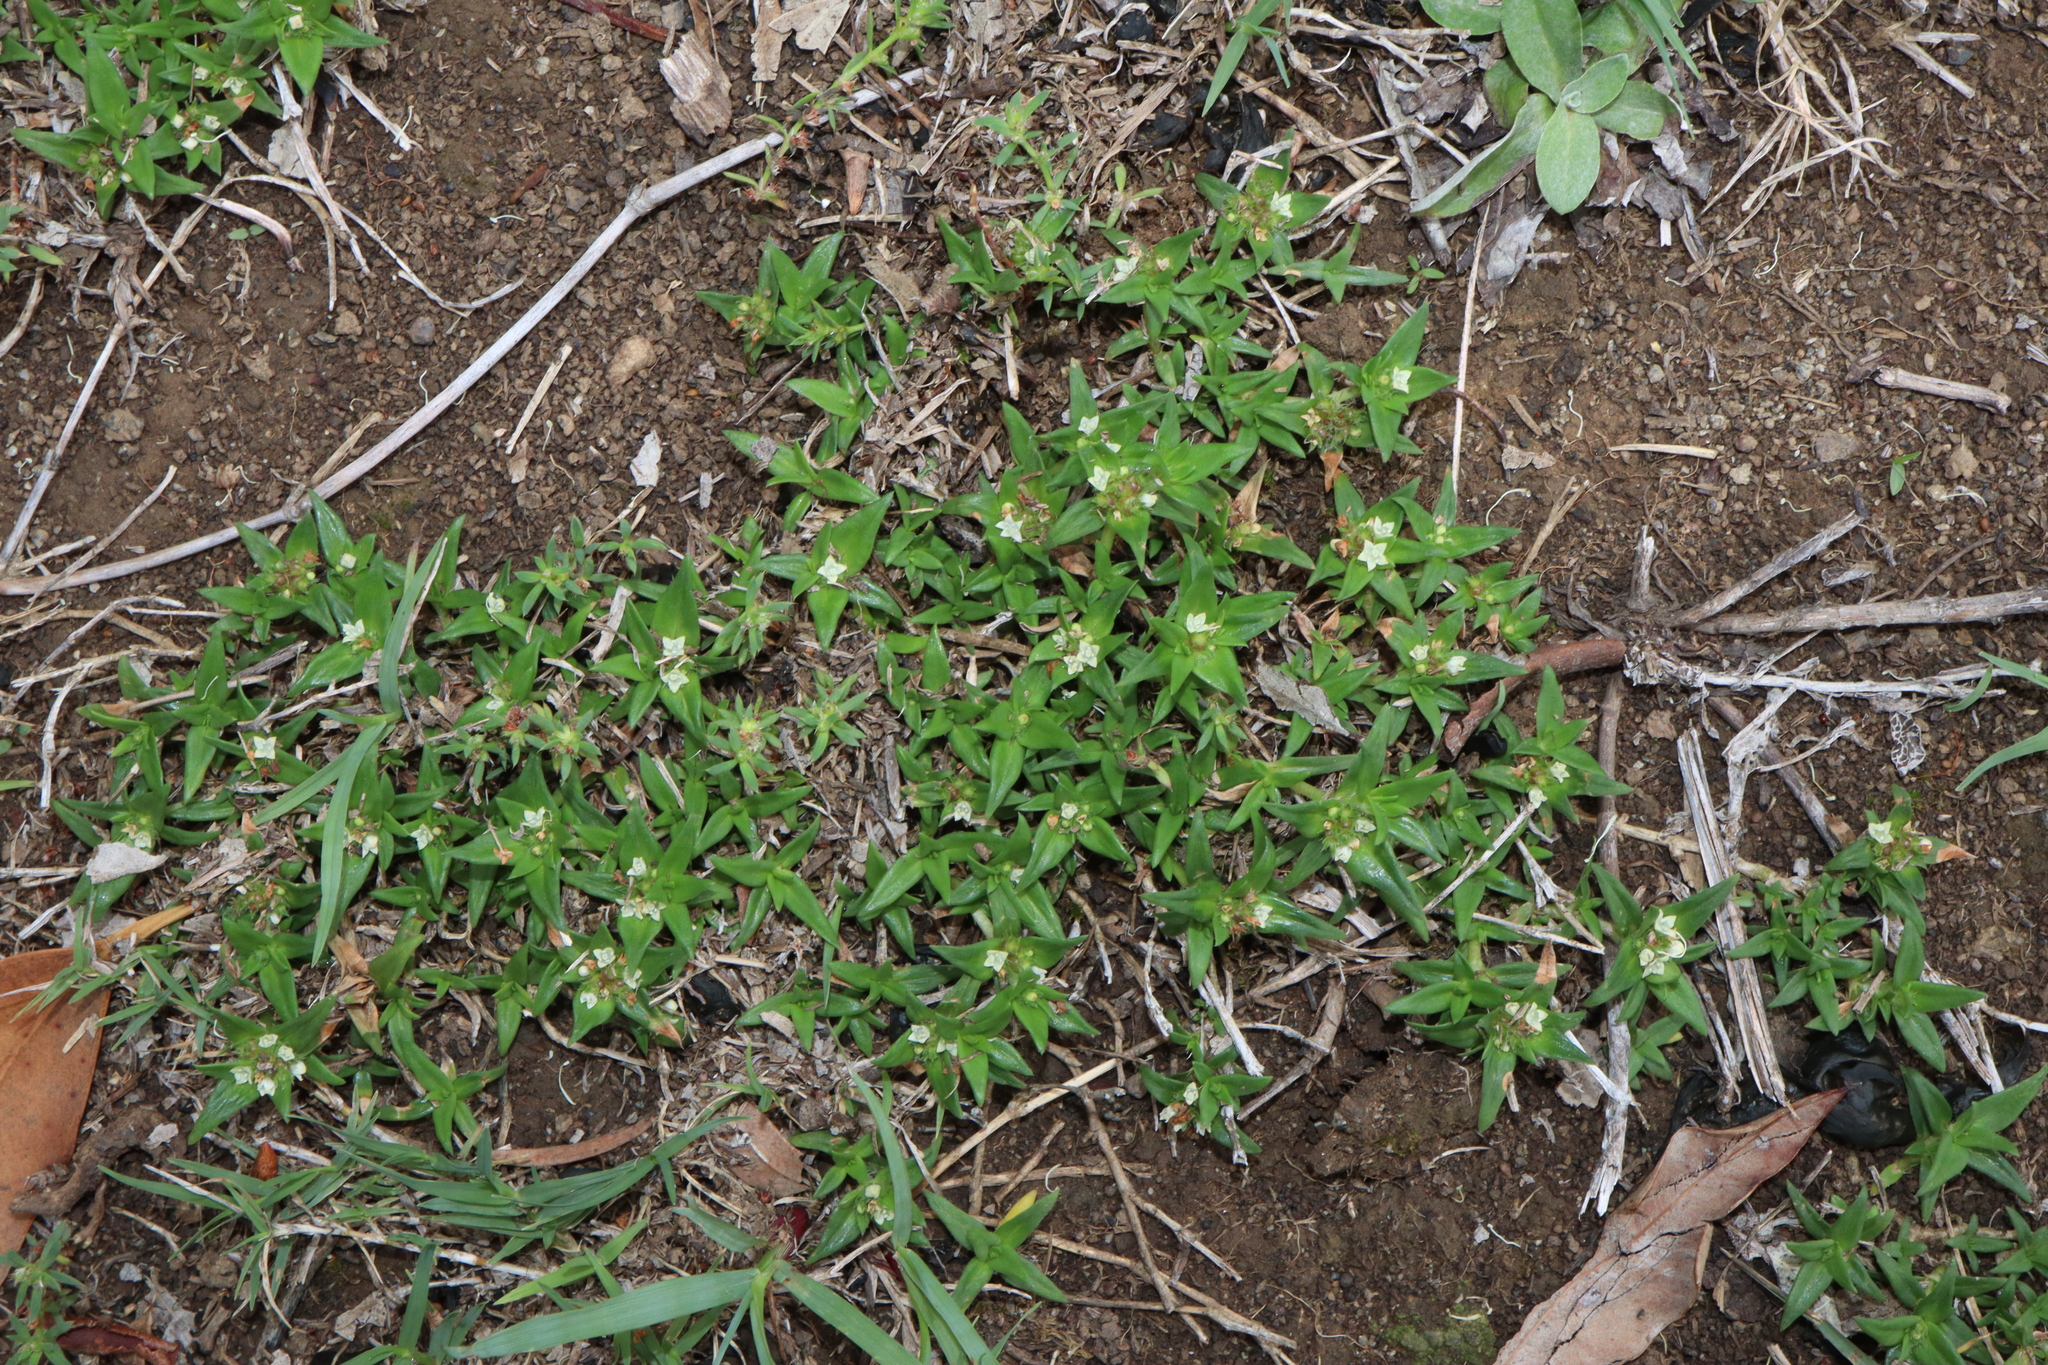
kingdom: Plantae
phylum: Tracheophyta
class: Magnoliopsida
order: Gentianales
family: Rubiaceae
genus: Richardia
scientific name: Richardia stellaris
